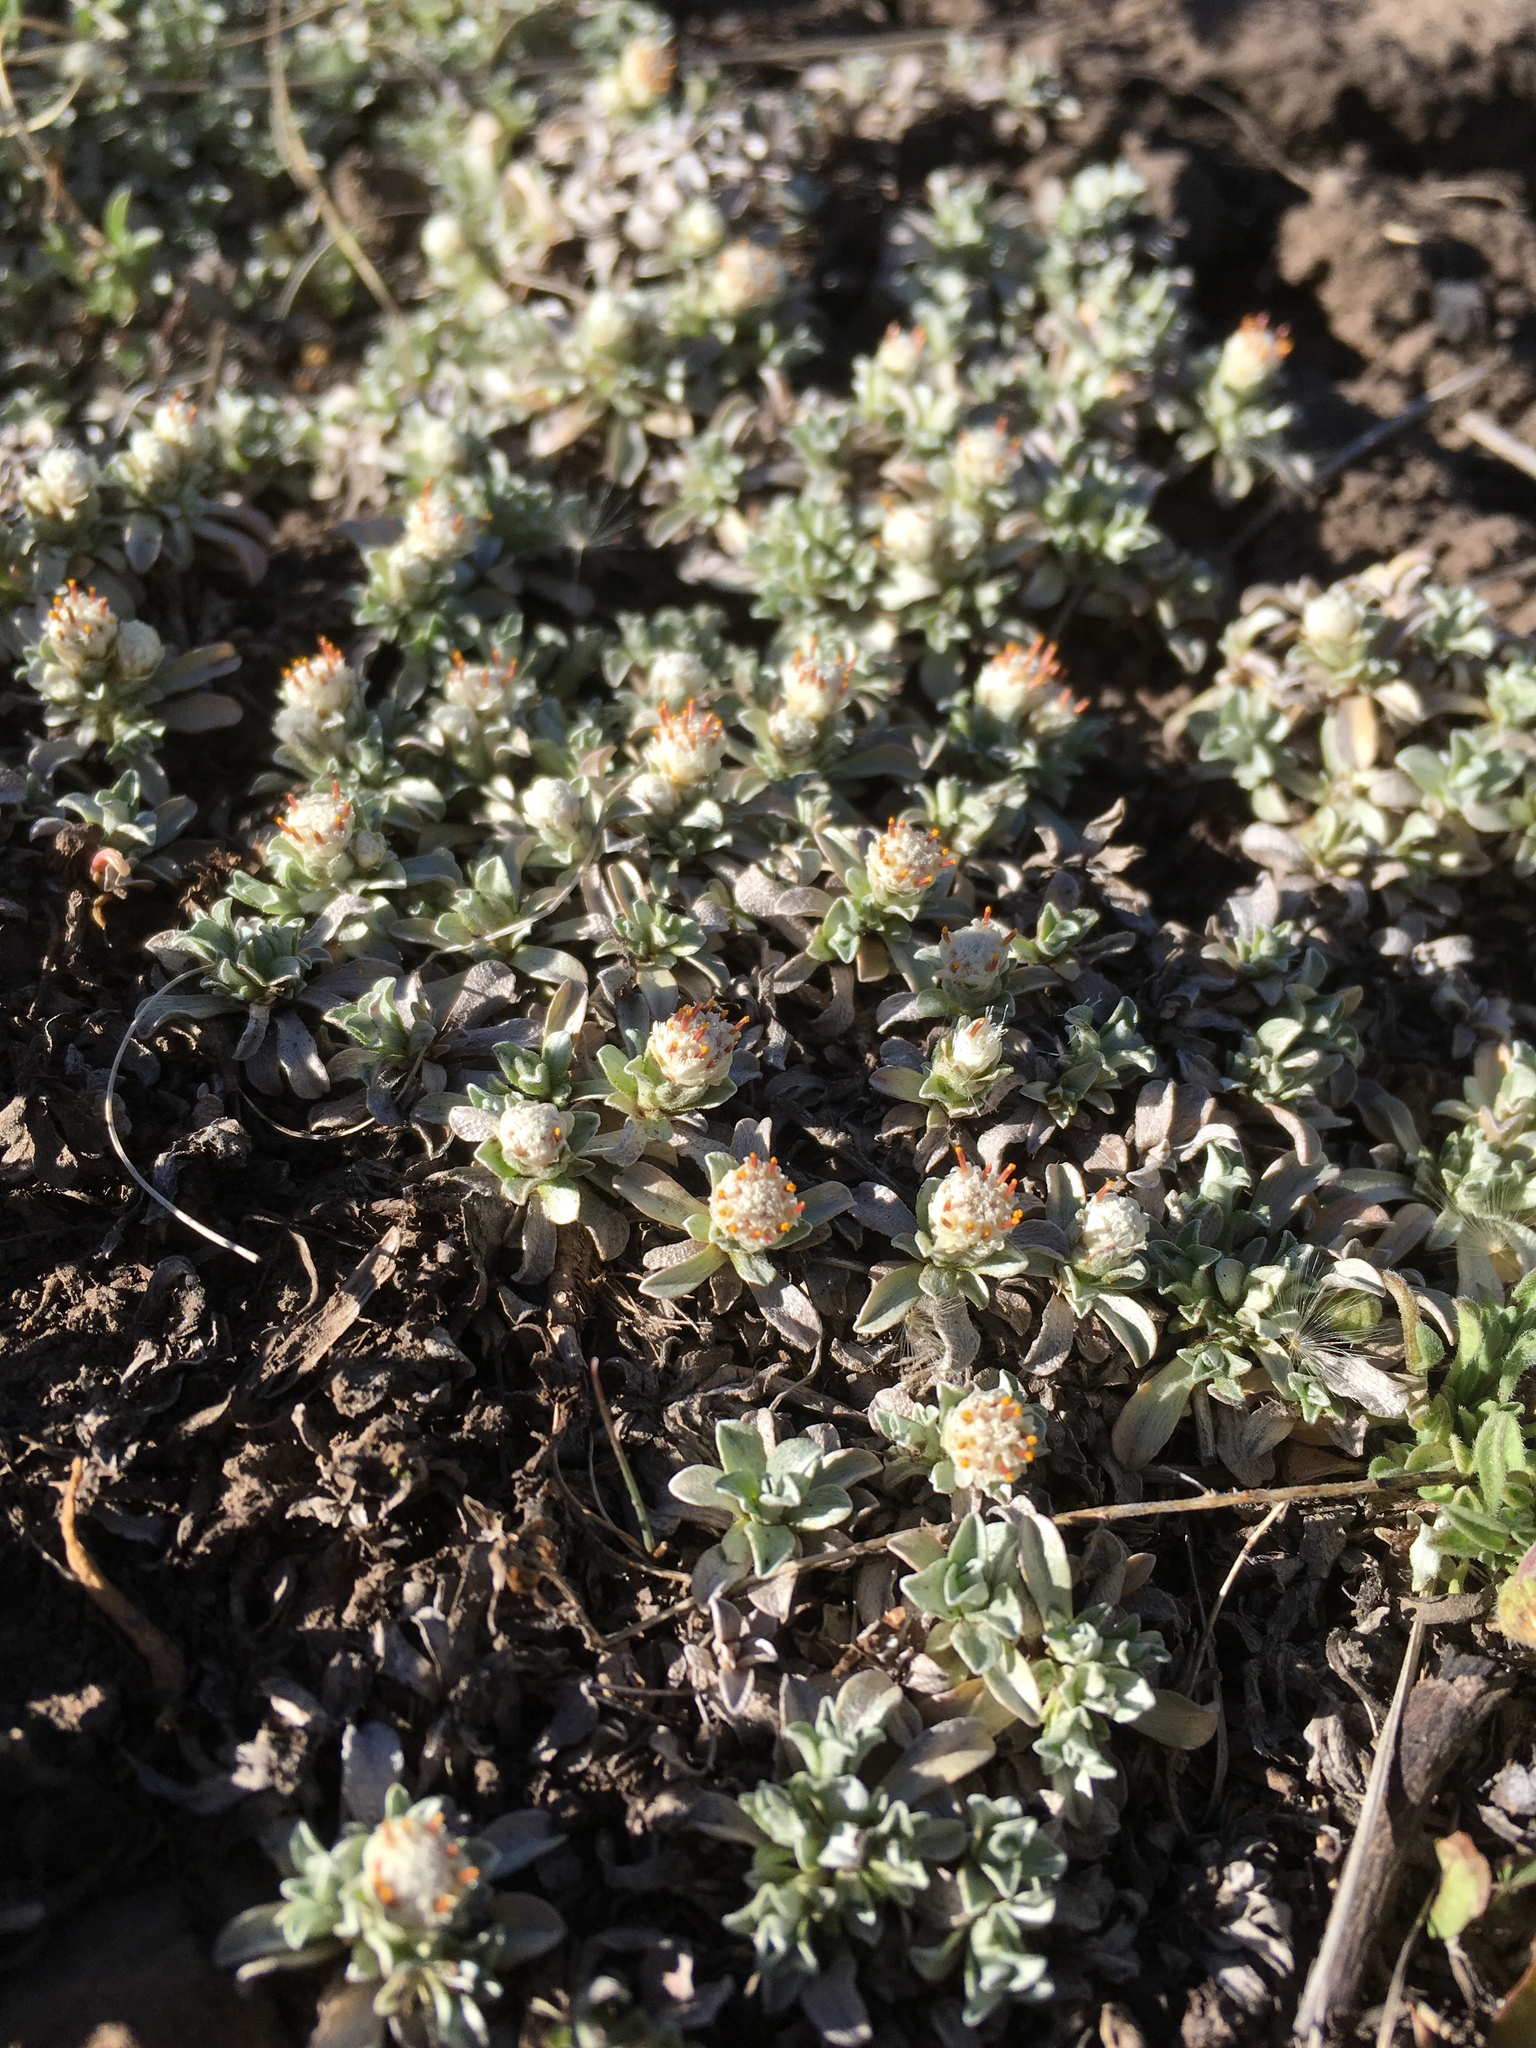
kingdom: Plantae
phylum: Tracheophyta
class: Magnoliopsida
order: Asterales
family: Asteraceae
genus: Antennaria
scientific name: Antennaria rosulata
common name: Woolly pussytoes
